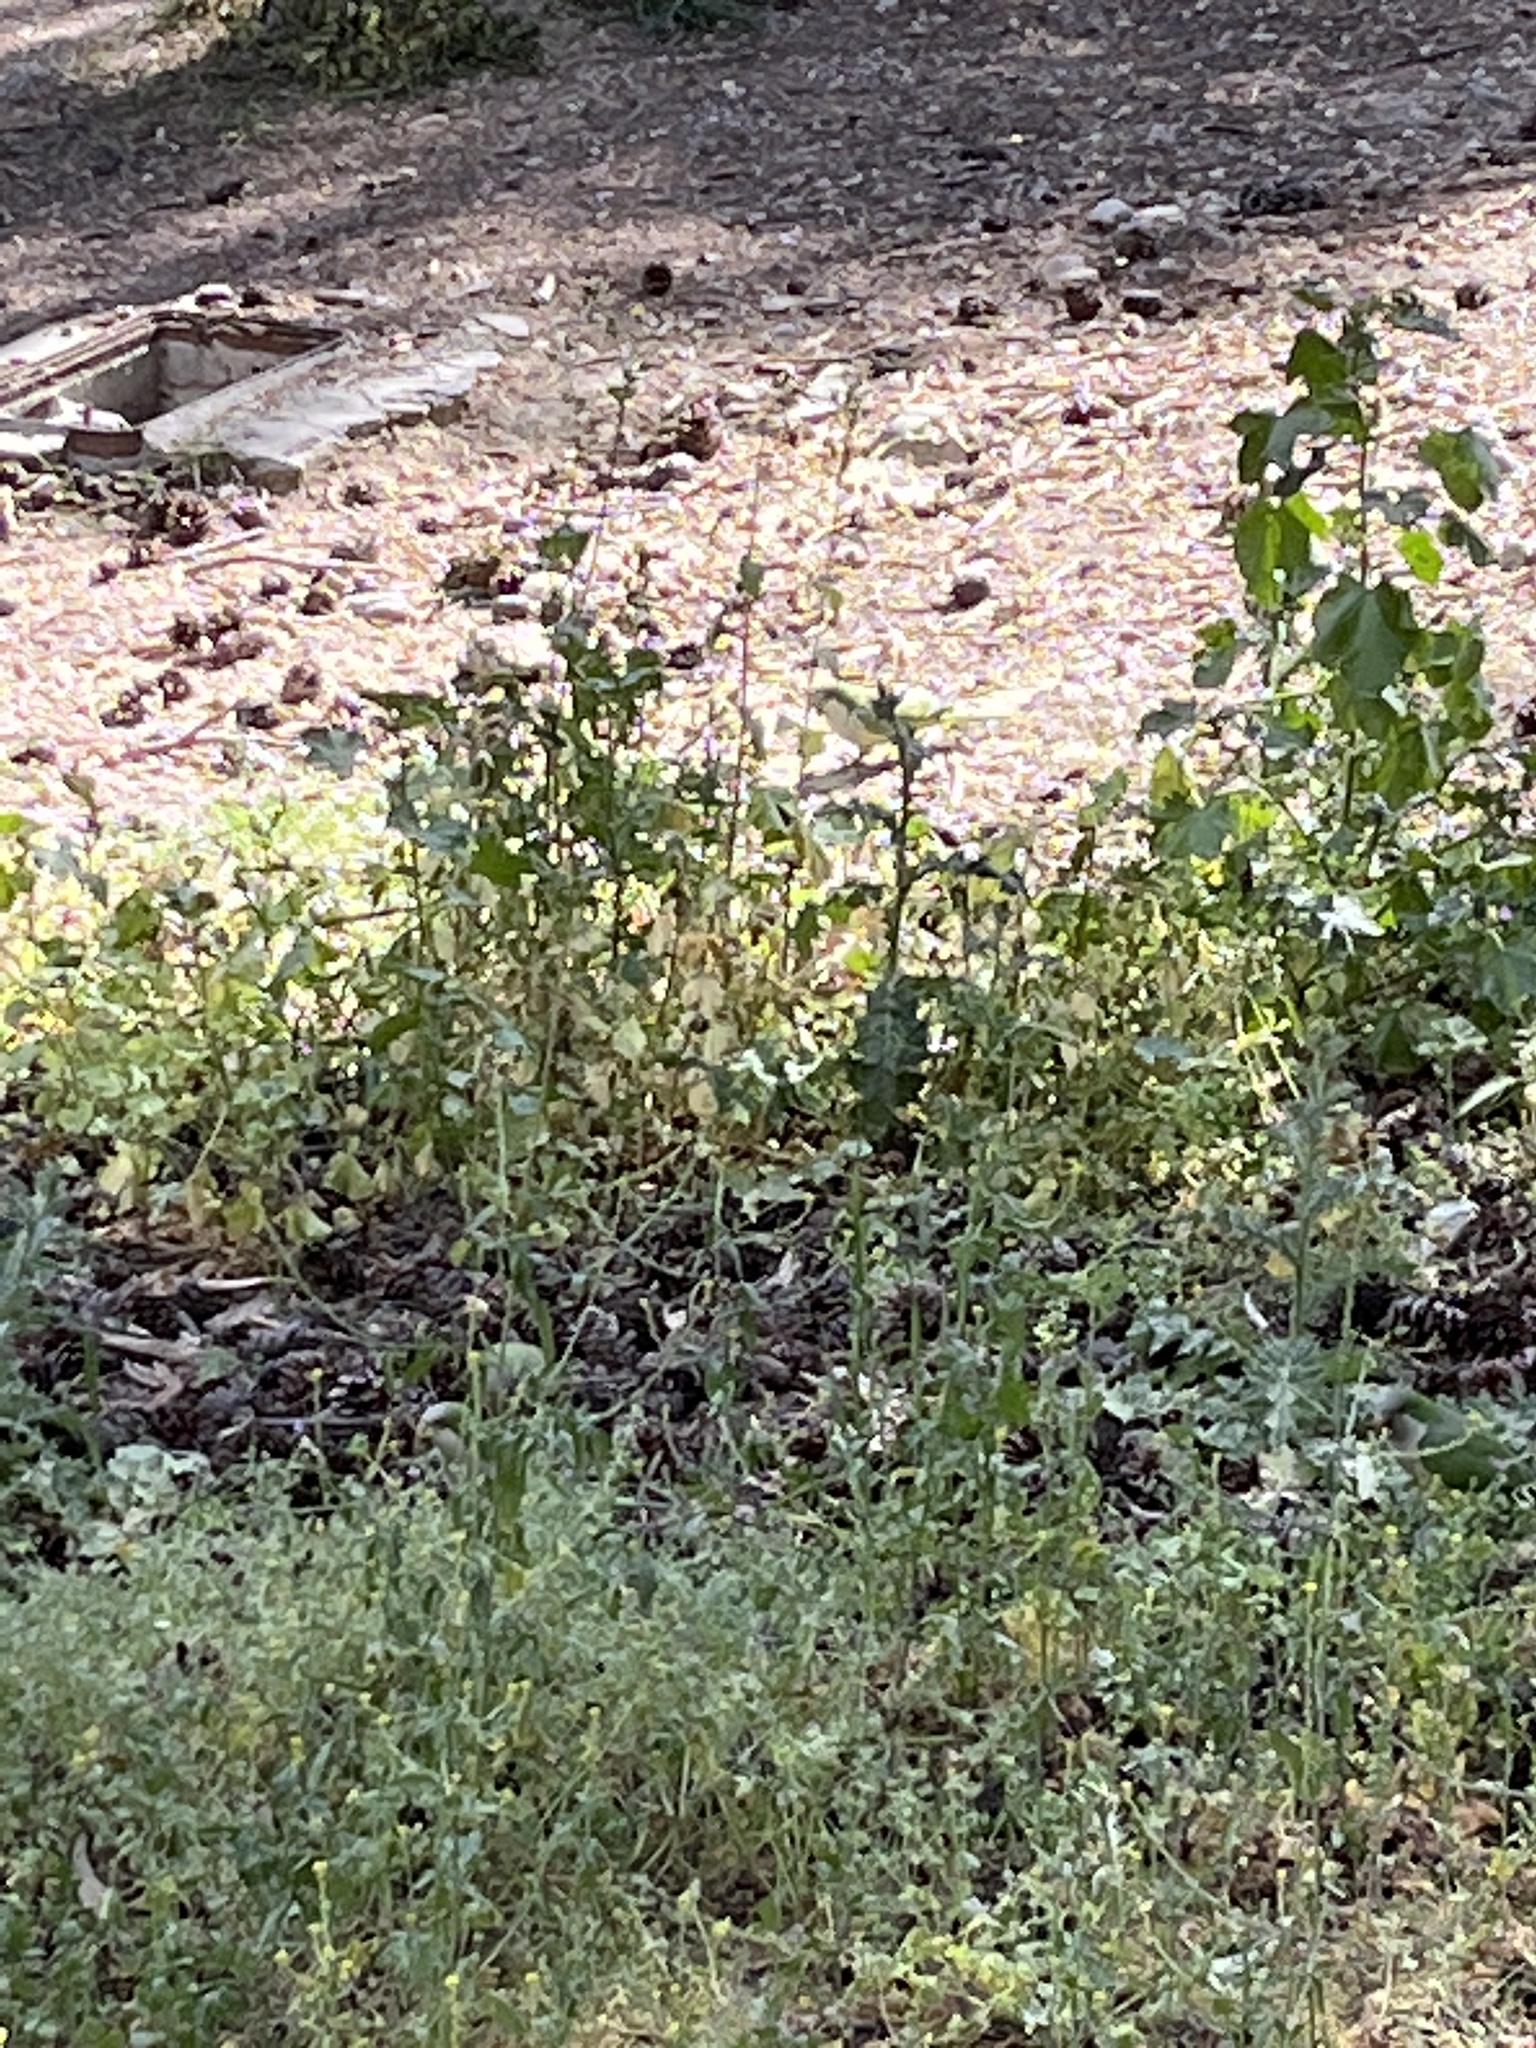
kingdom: Animalia
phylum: Chordata
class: Aves
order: Psittaciformes
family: Psittacidae
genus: Myiopsitta
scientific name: Myiopsitta monachus
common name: Monk parakeet
